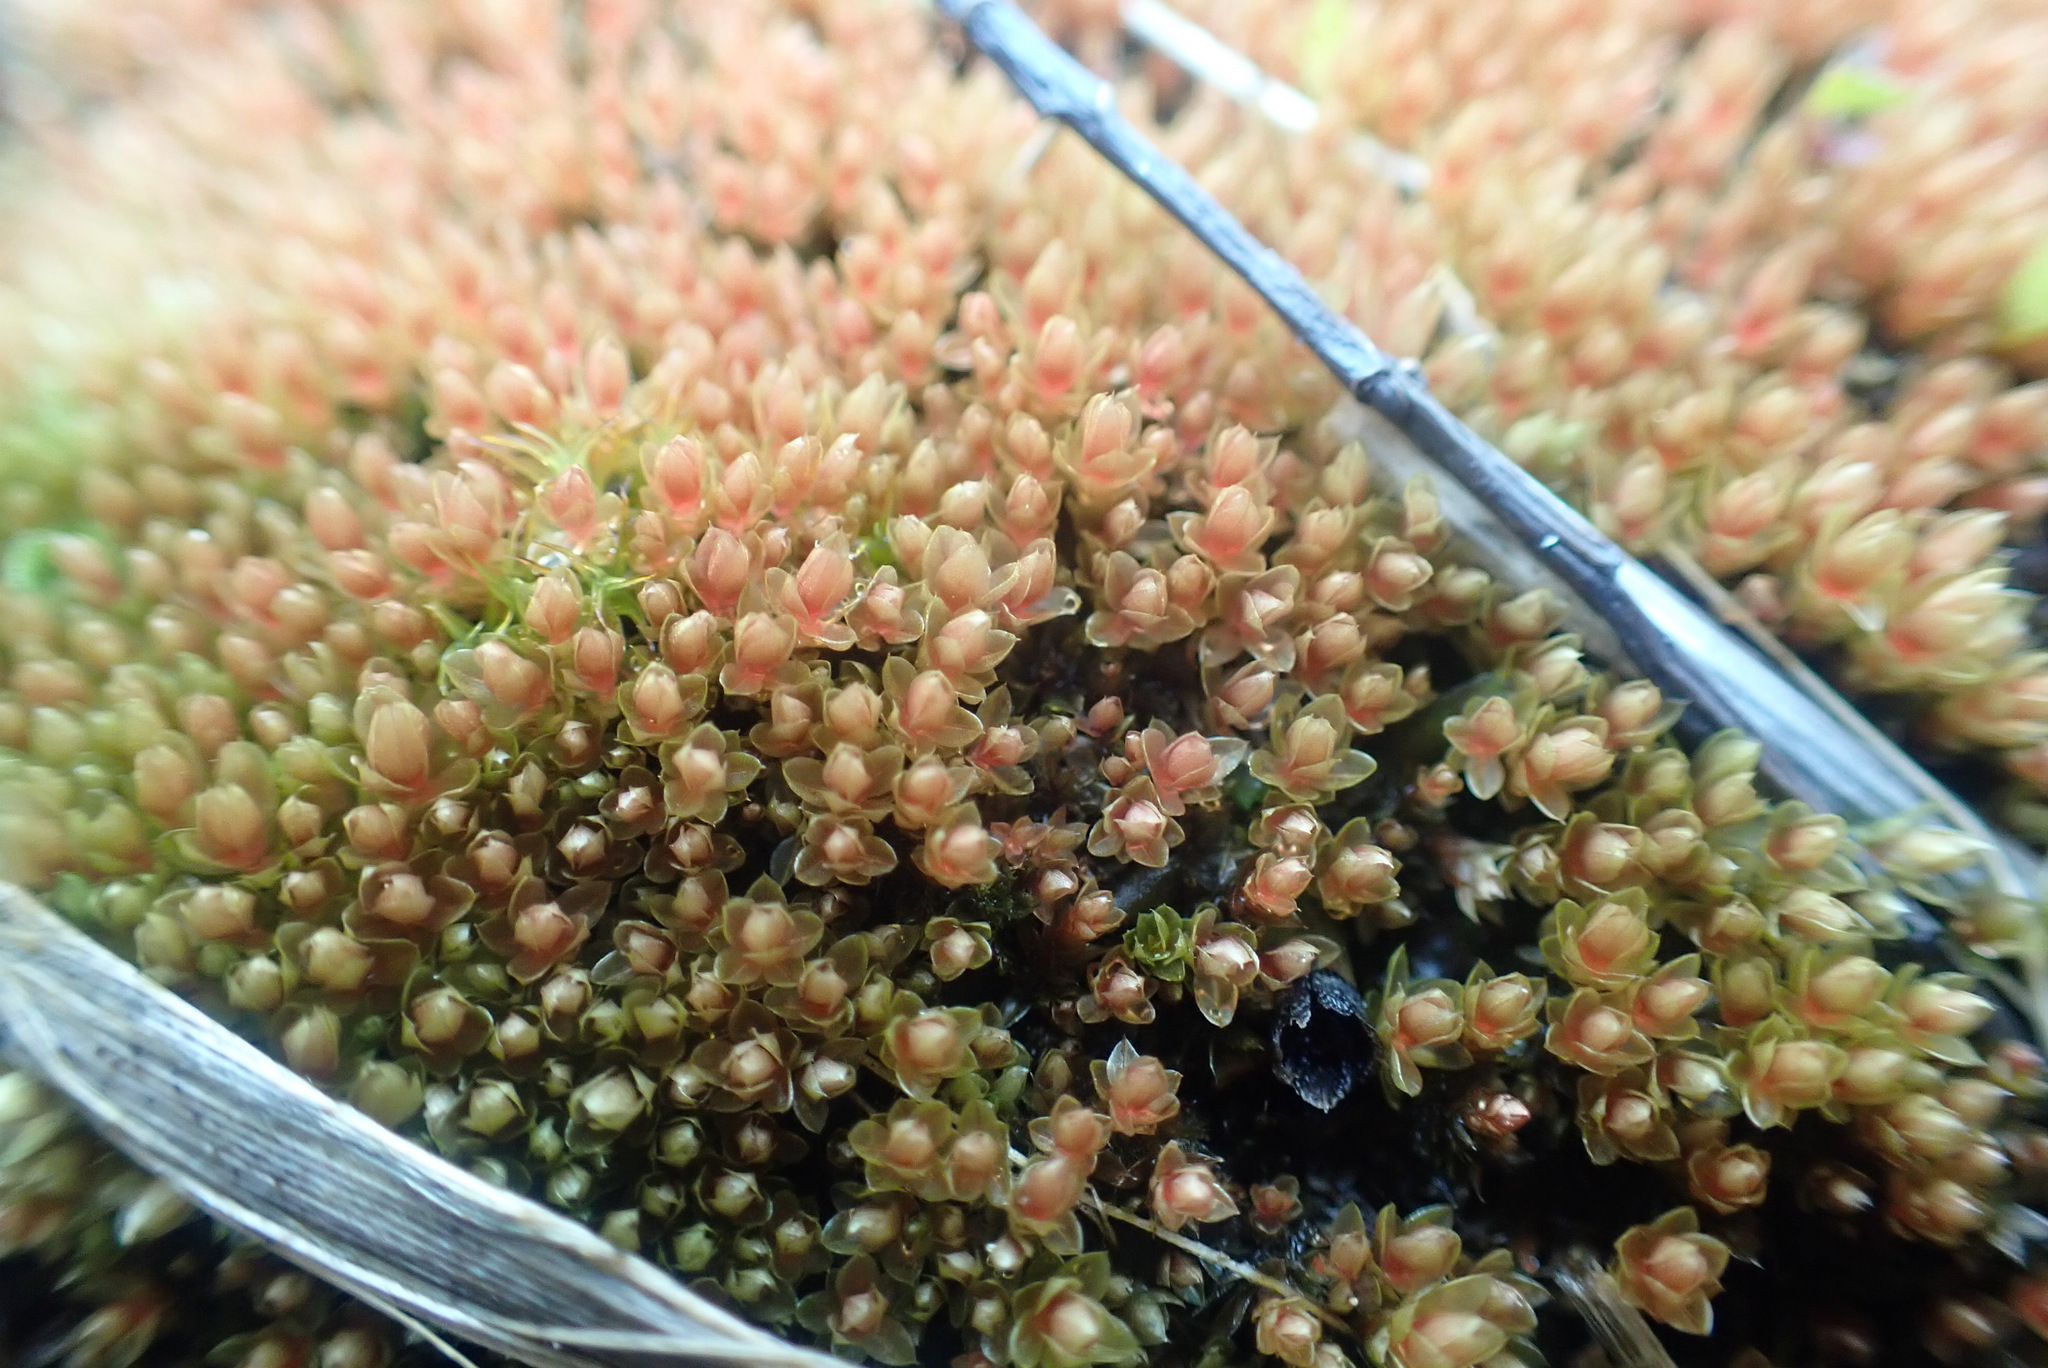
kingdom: Plantae
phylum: Bryophyta
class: Bryopsida
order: Bryales
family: Bryaceae
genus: Ptychostomum
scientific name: Ptychostomum pallens
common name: Pale thread-moss
